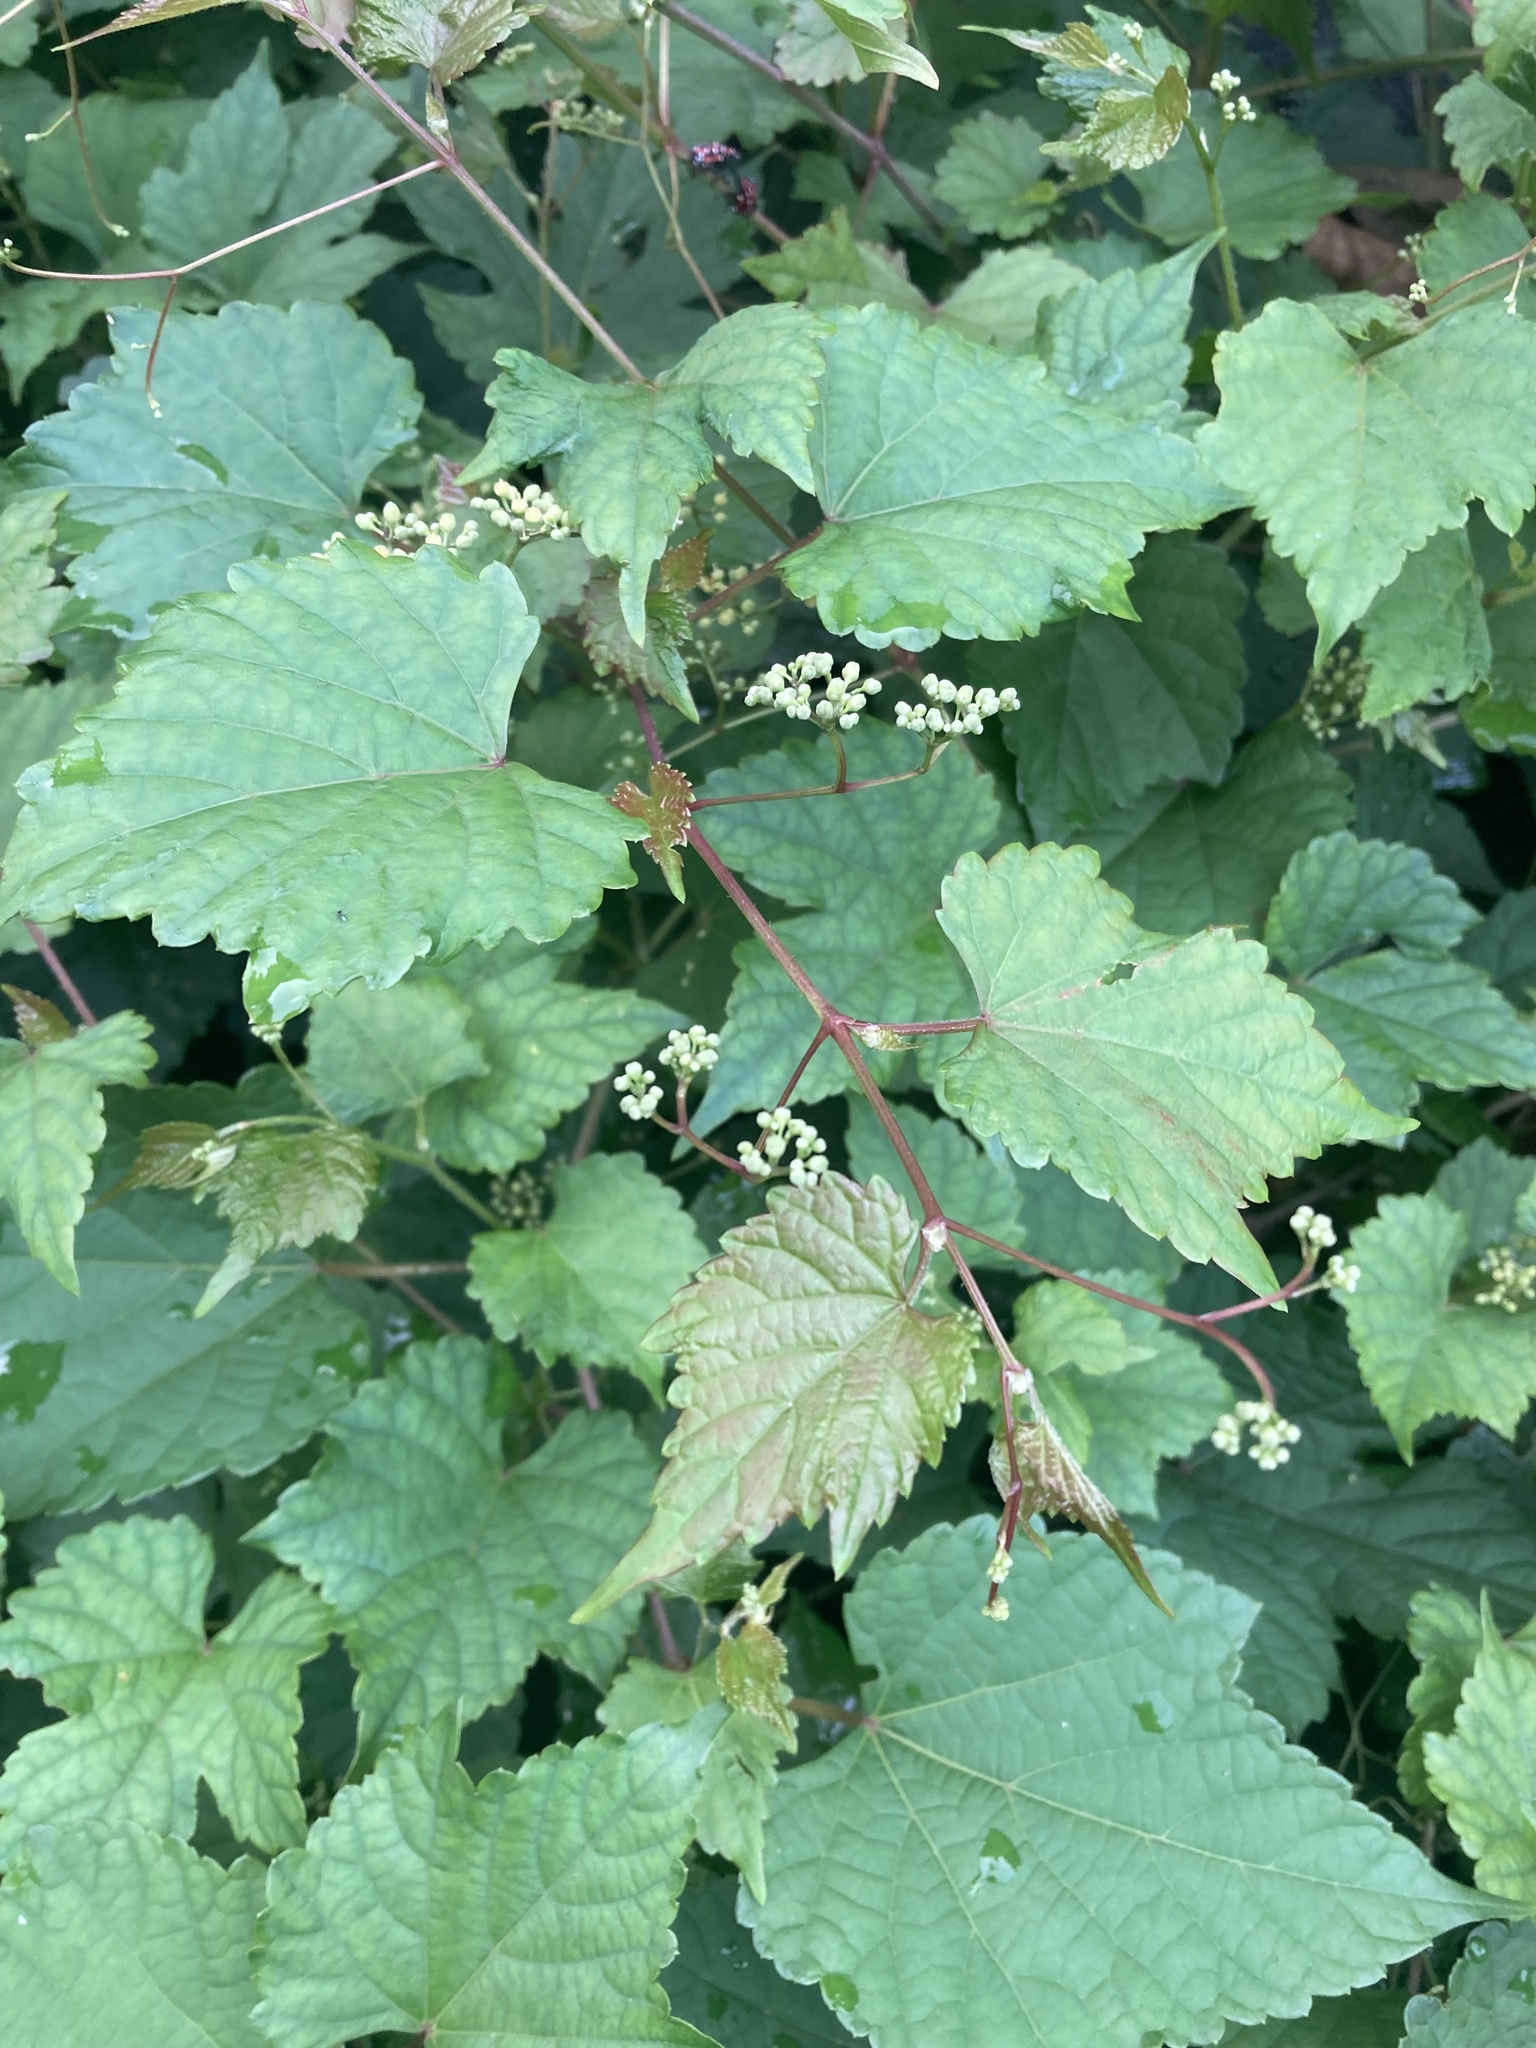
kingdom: Plantae
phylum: Tracheophyta
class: Magnoliopsida
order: Vitales
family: Vitaceae
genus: Ampelopsis
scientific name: Ampelopsis glandulosa
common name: Amur peppervine
